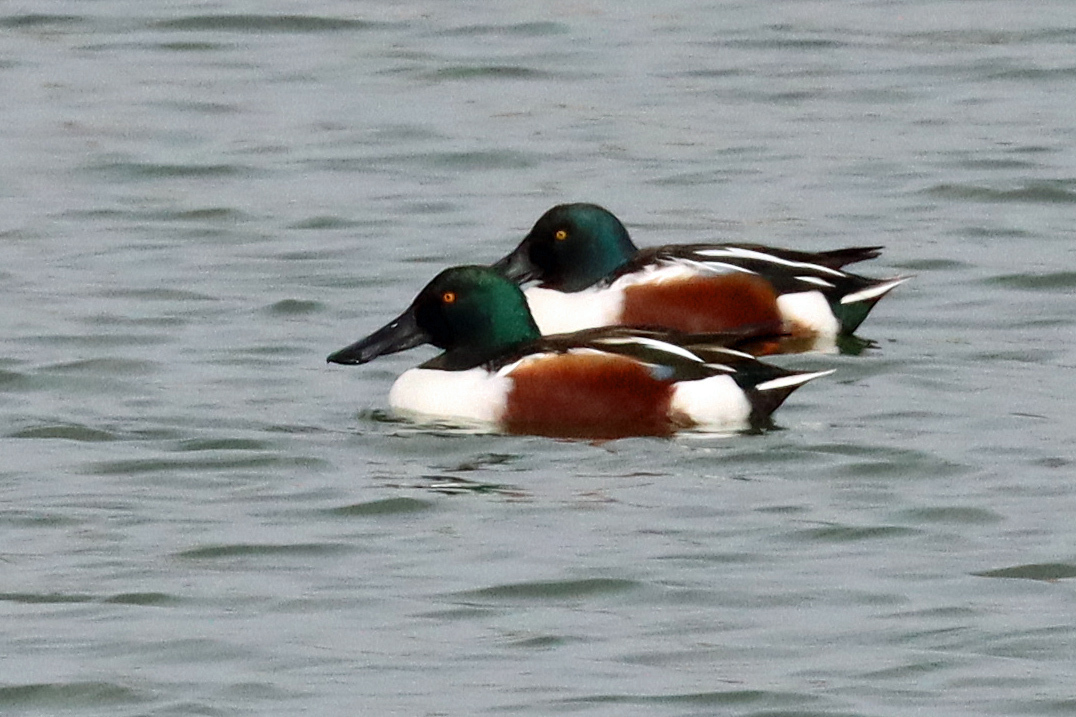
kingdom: Animalia
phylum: Chordata
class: Aves
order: Anseriformes
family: Anatidae
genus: Spatula
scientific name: Spatula clypeata
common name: Northern shoveler
